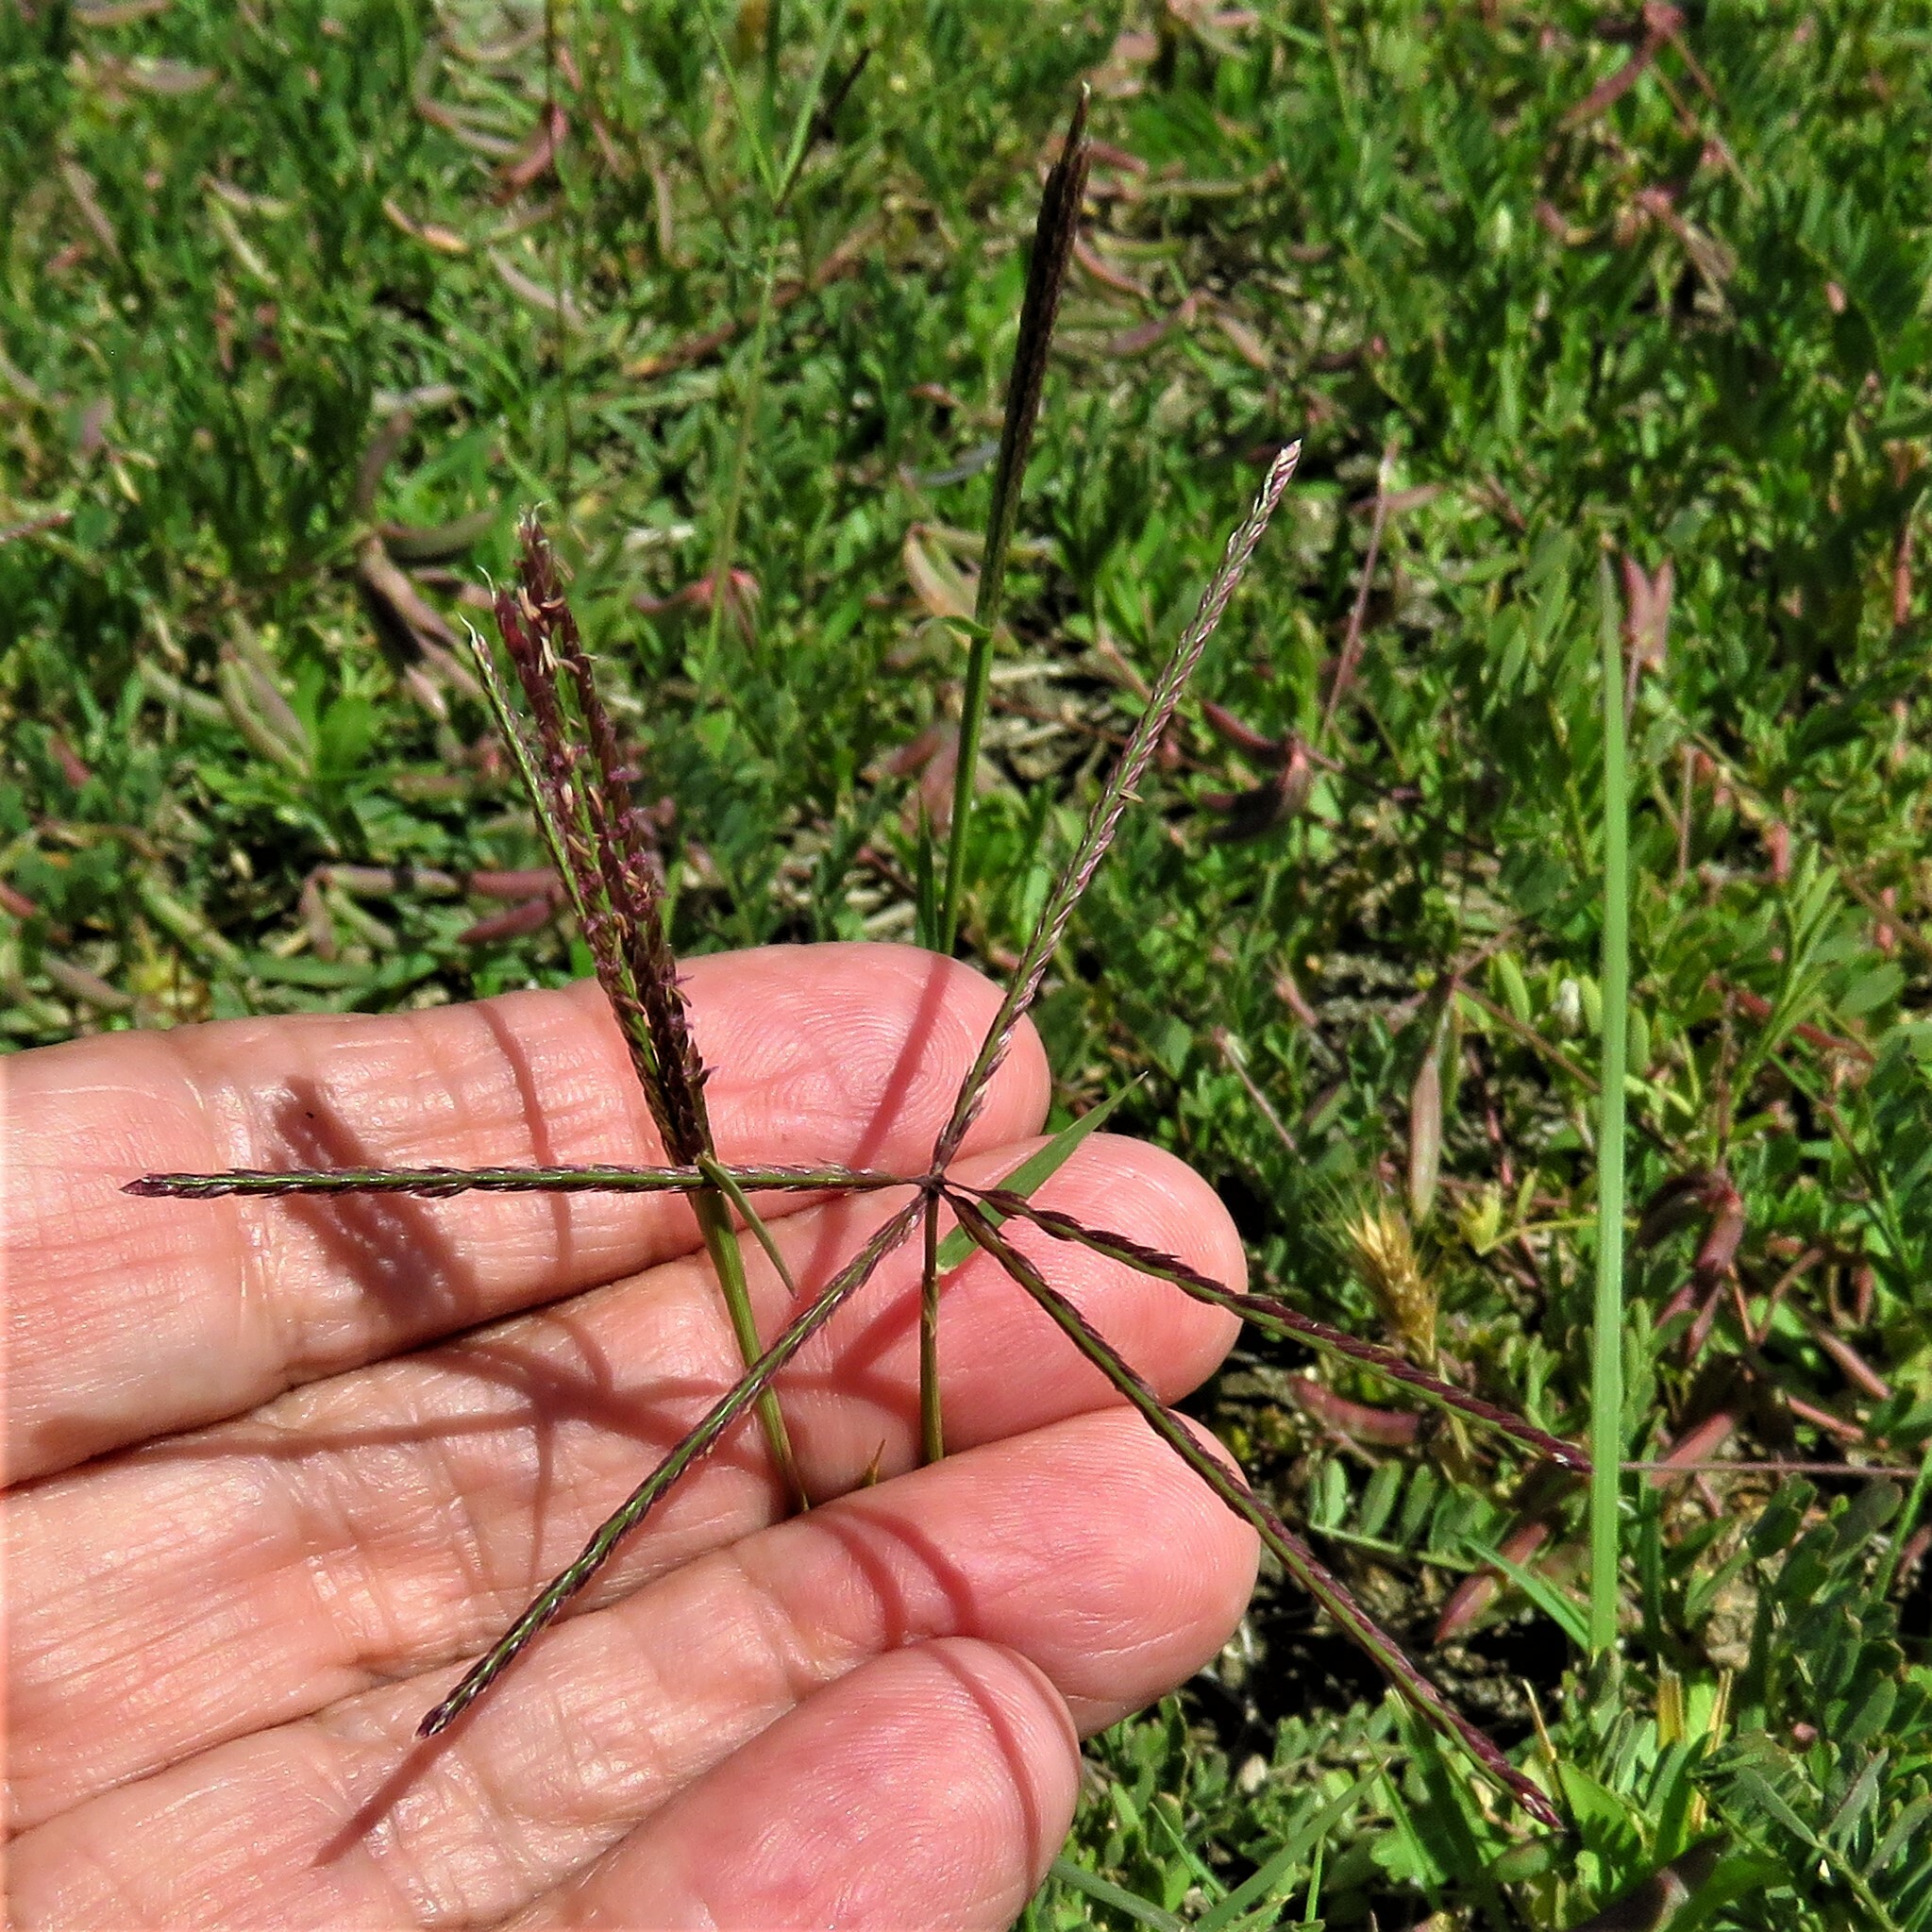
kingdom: Plantae
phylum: Tracheophyta
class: Liliopsida
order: Poales
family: Poaceae
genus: Cynodon
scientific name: Cynodon dactylon
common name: Bermuda grass
